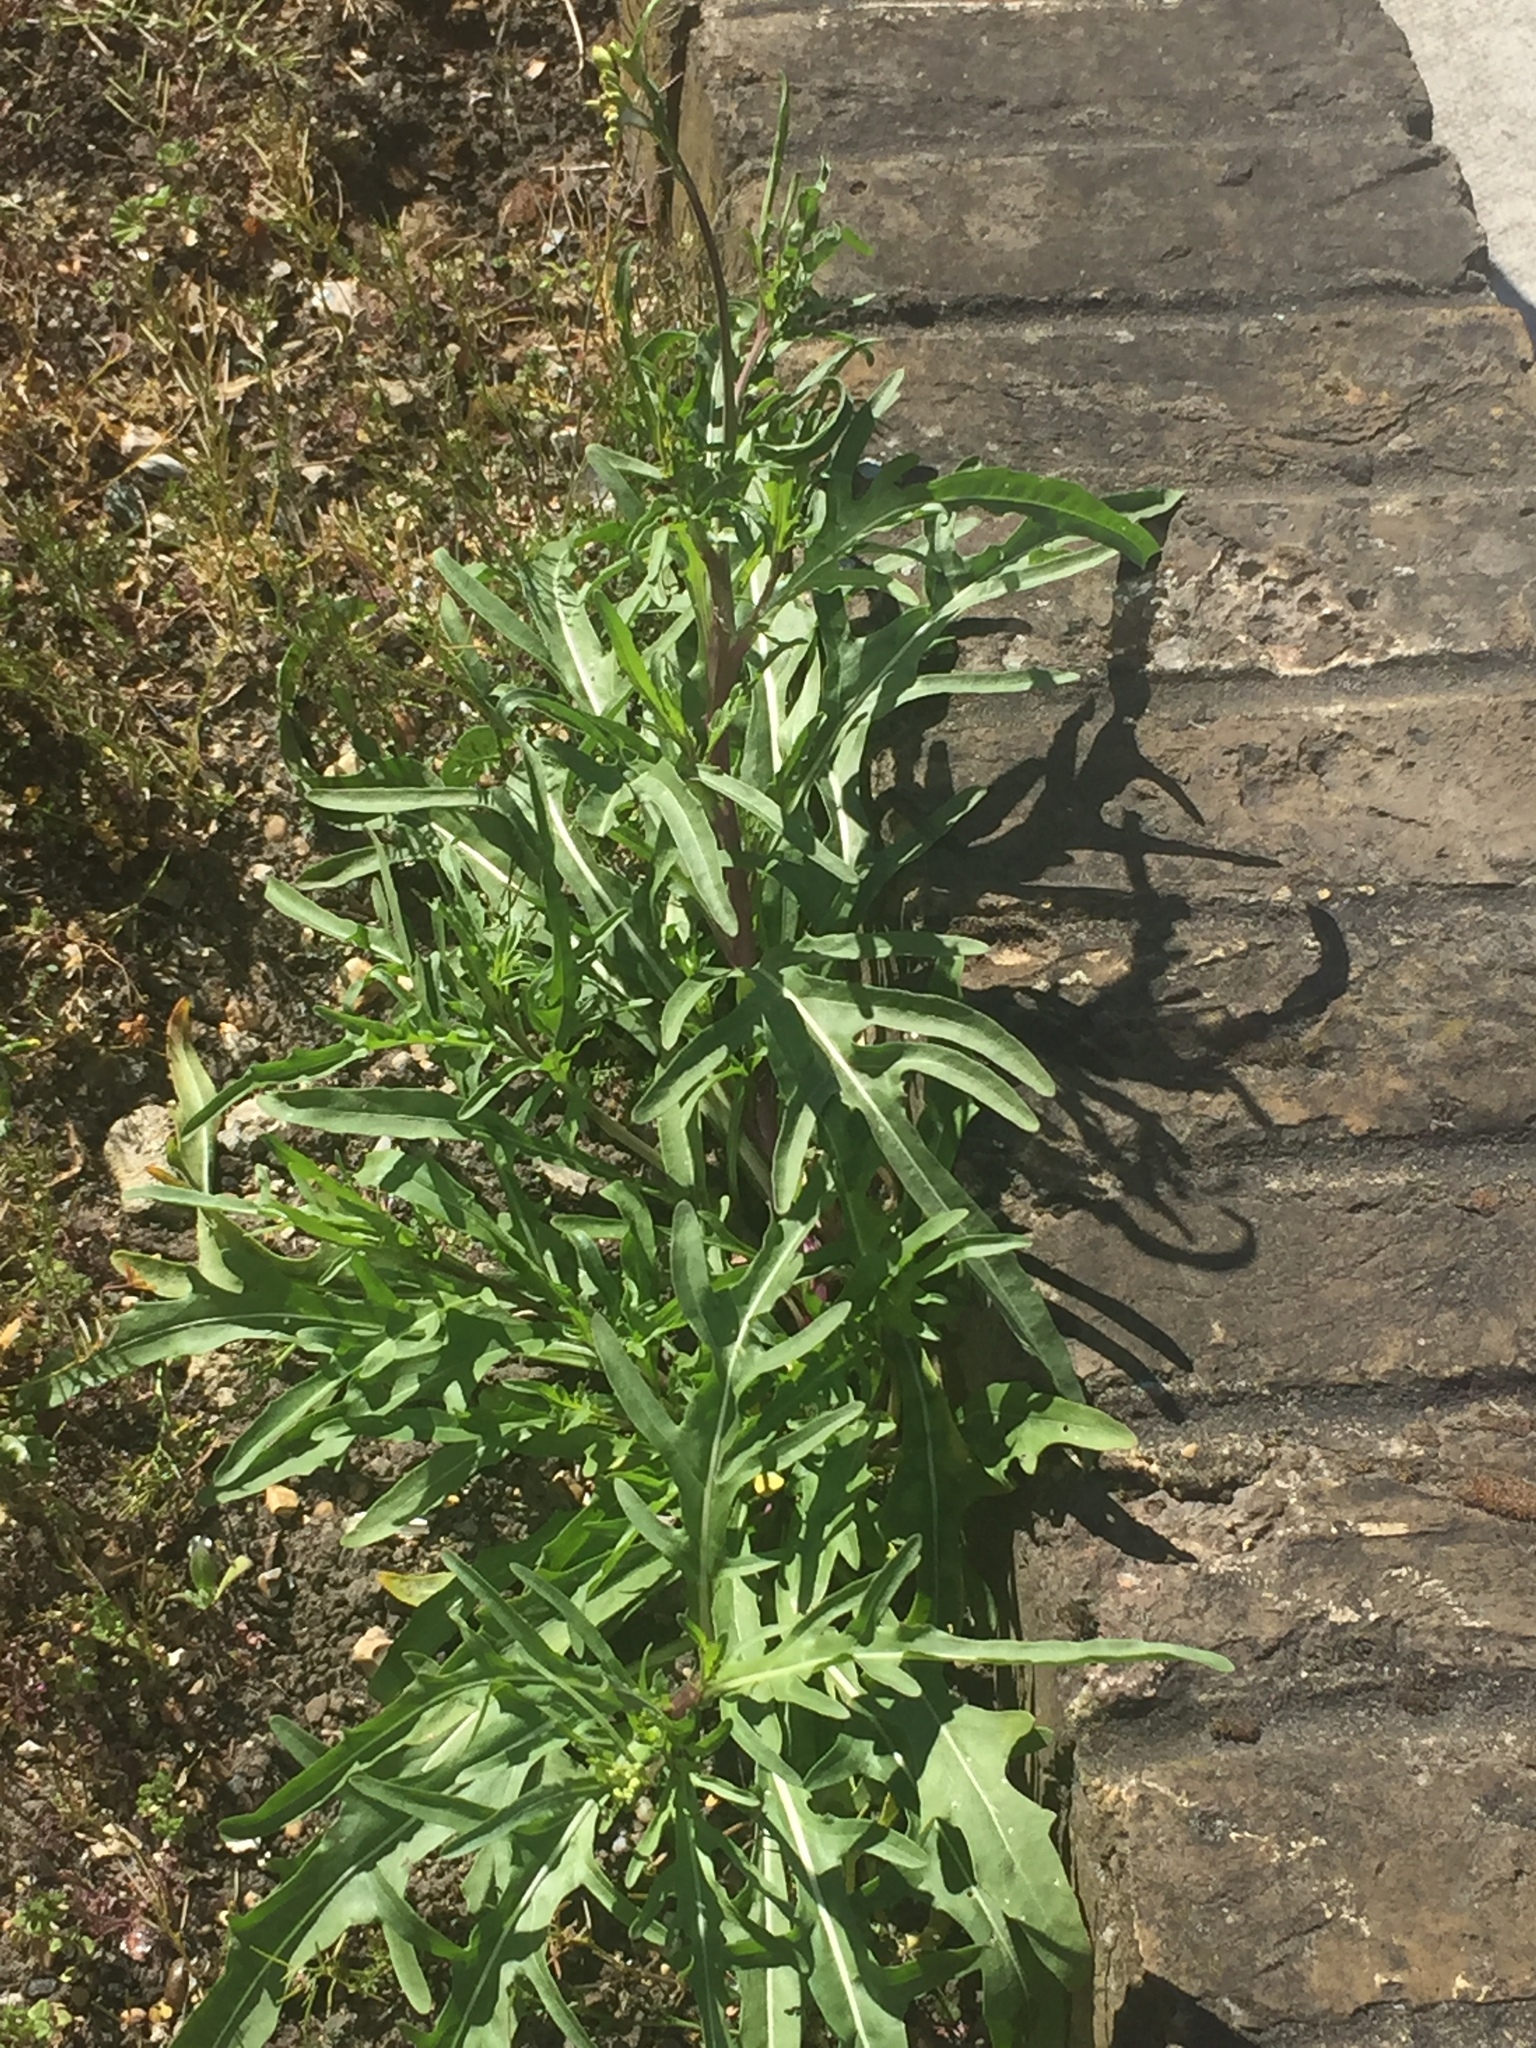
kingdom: Plantae
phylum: Tracheophyta
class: Magnoliopsida
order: Brassicales
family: Brassicaceae
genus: Diplotaxis
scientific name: Diplotaxis tenuifolia
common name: Perennial wall-rocket
